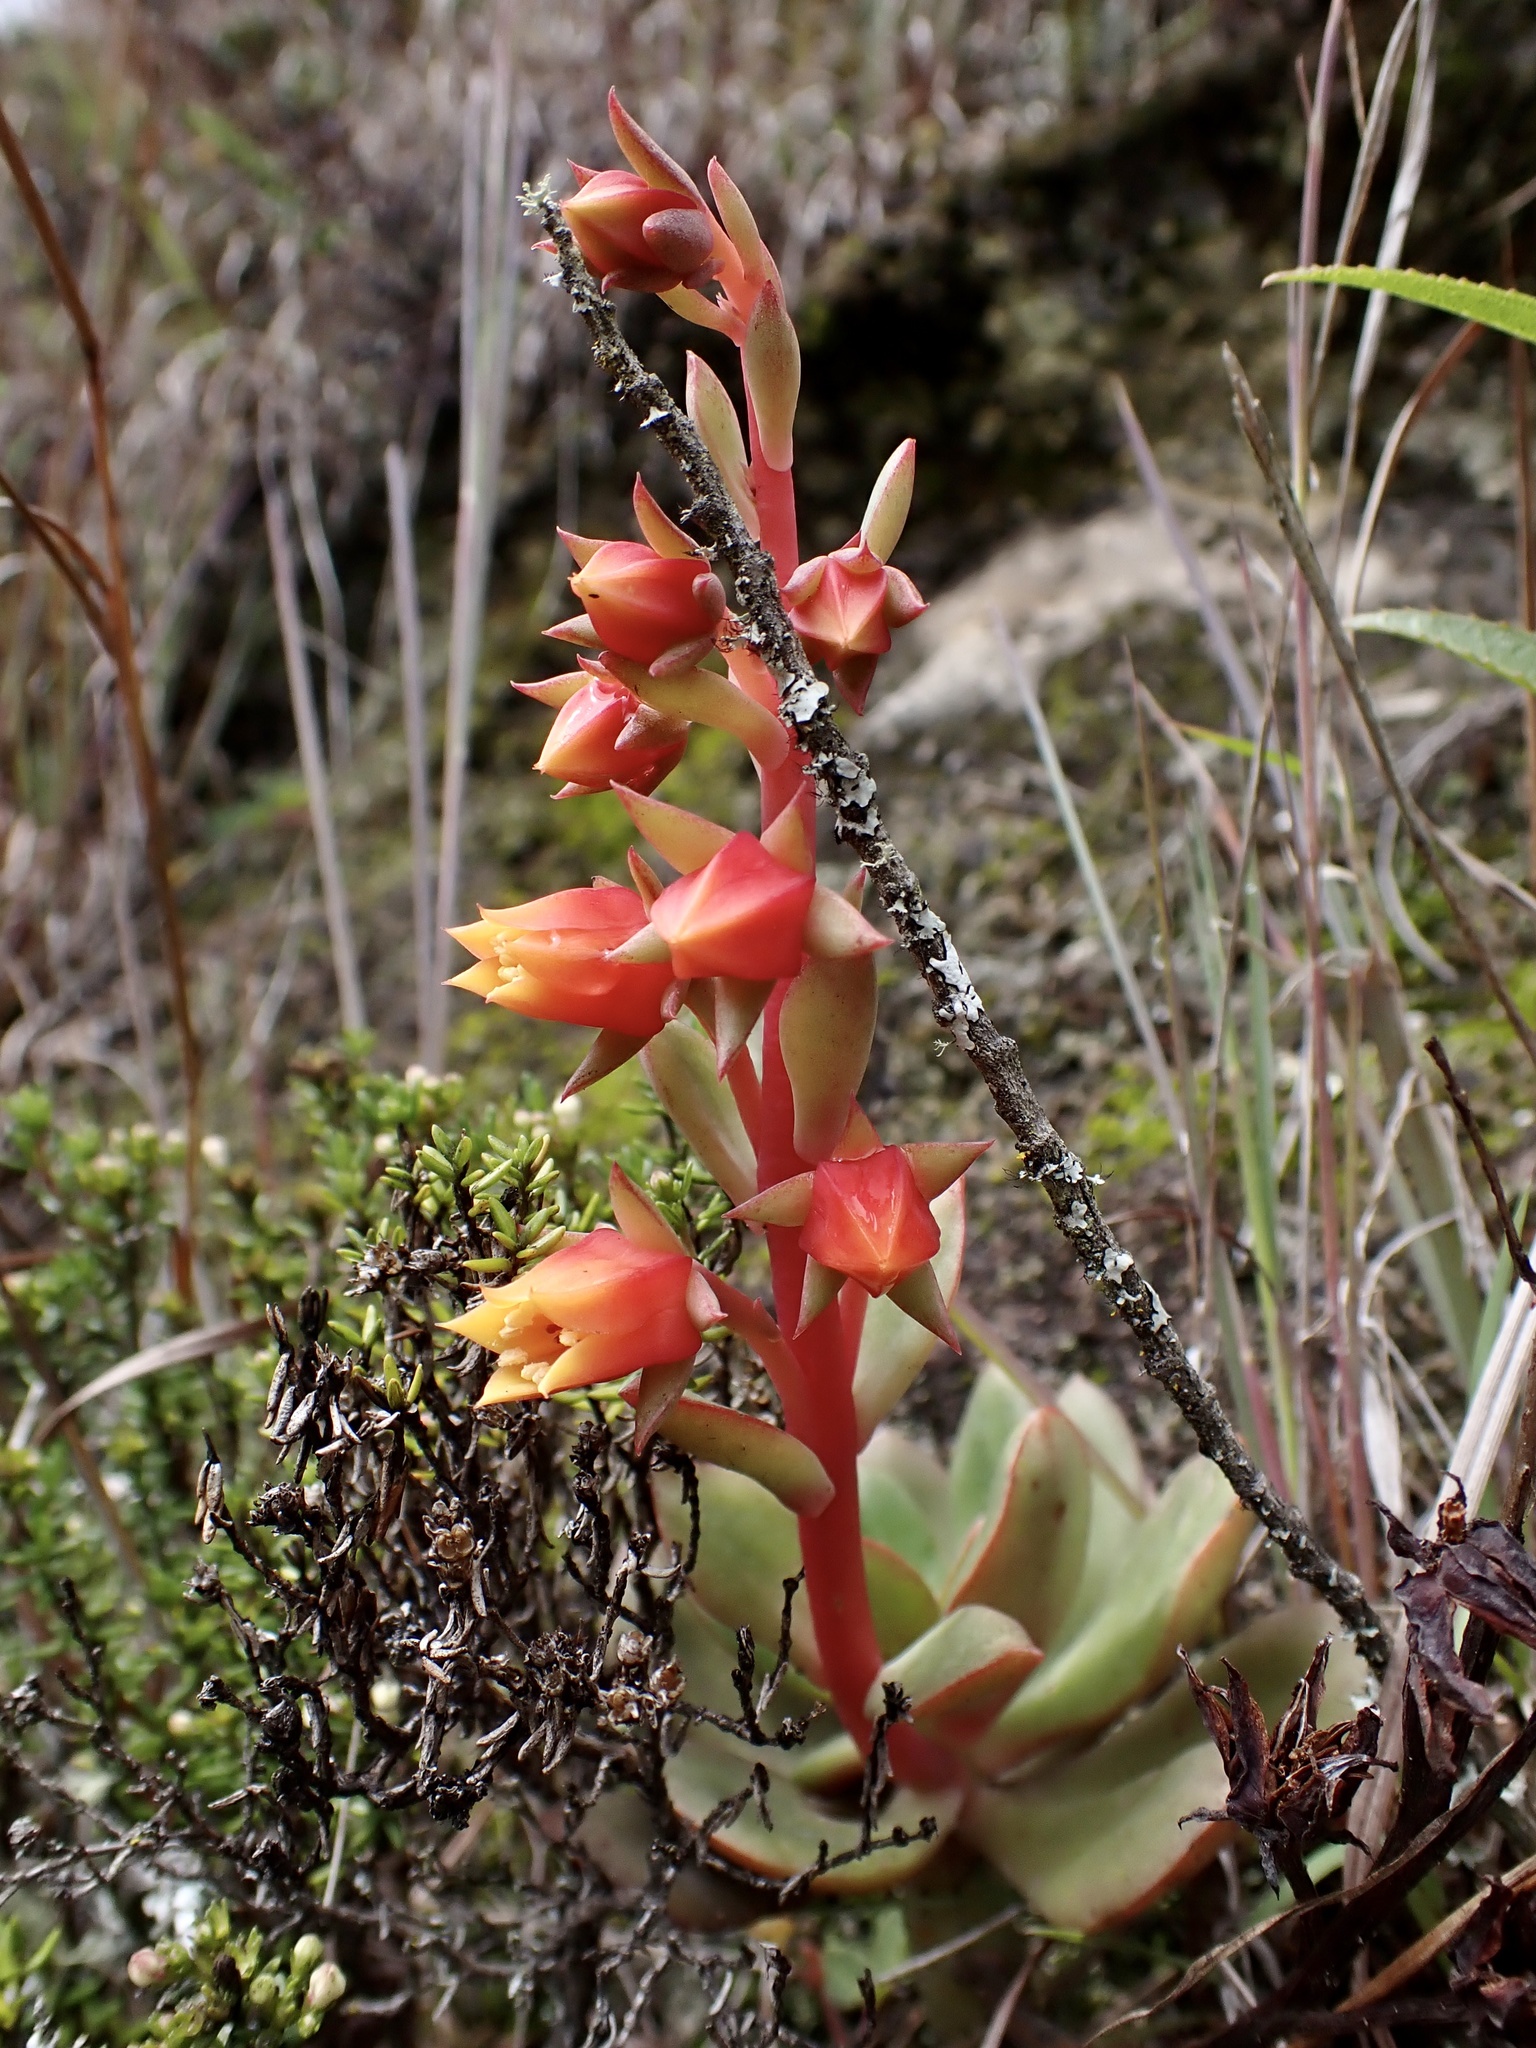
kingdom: Plantae
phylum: Tracheophyta
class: Magnoliopsida
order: Saxifragales
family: Crassulaceae
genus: Echeveria
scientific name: Echeveria quitensis
